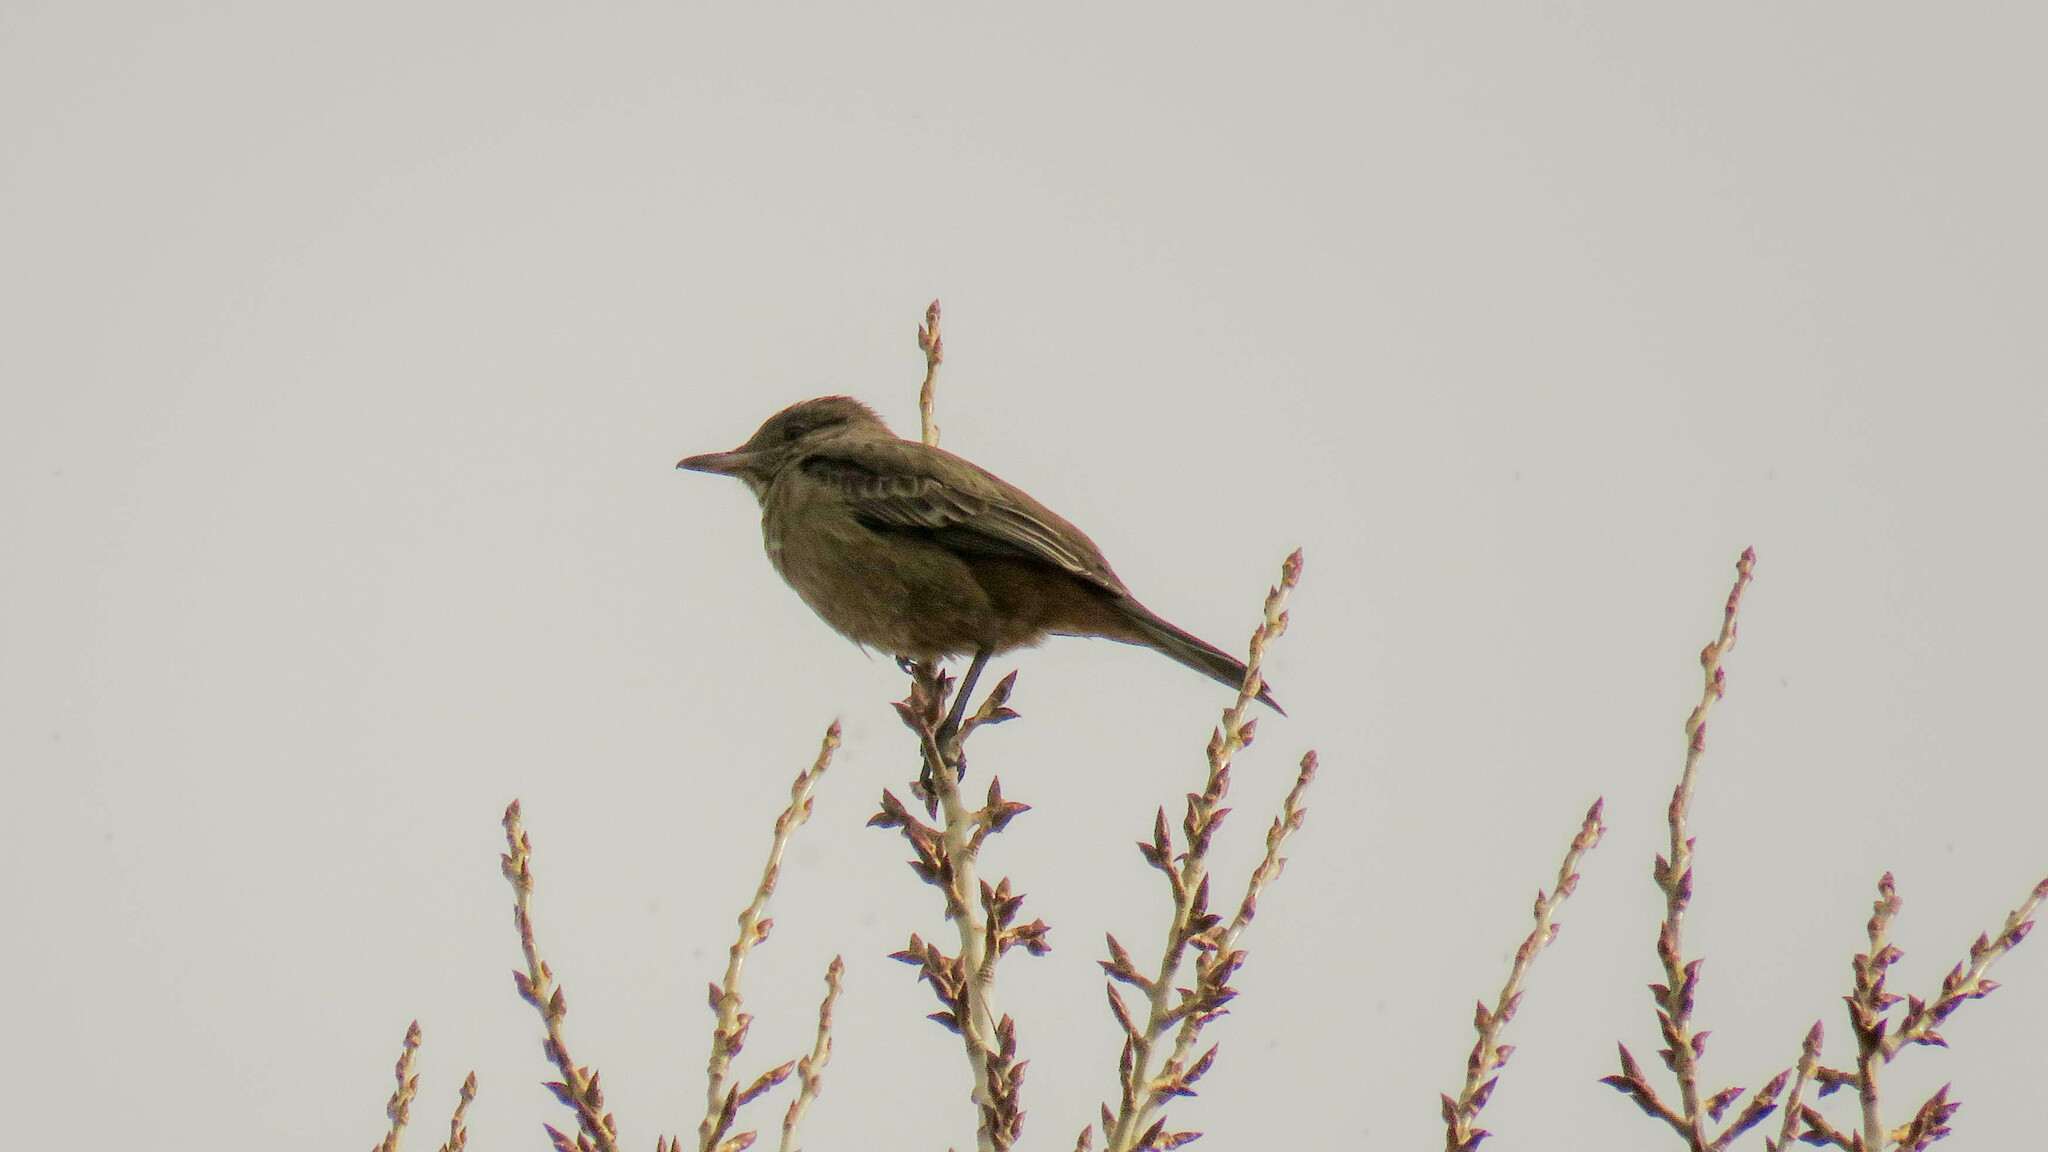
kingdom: Animalia
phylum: Chordata
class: Aves
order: Passeriformes
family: Tyrannidae
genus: Agriornis
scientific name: Agriornis lividus
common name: Great shrike-tyrant
